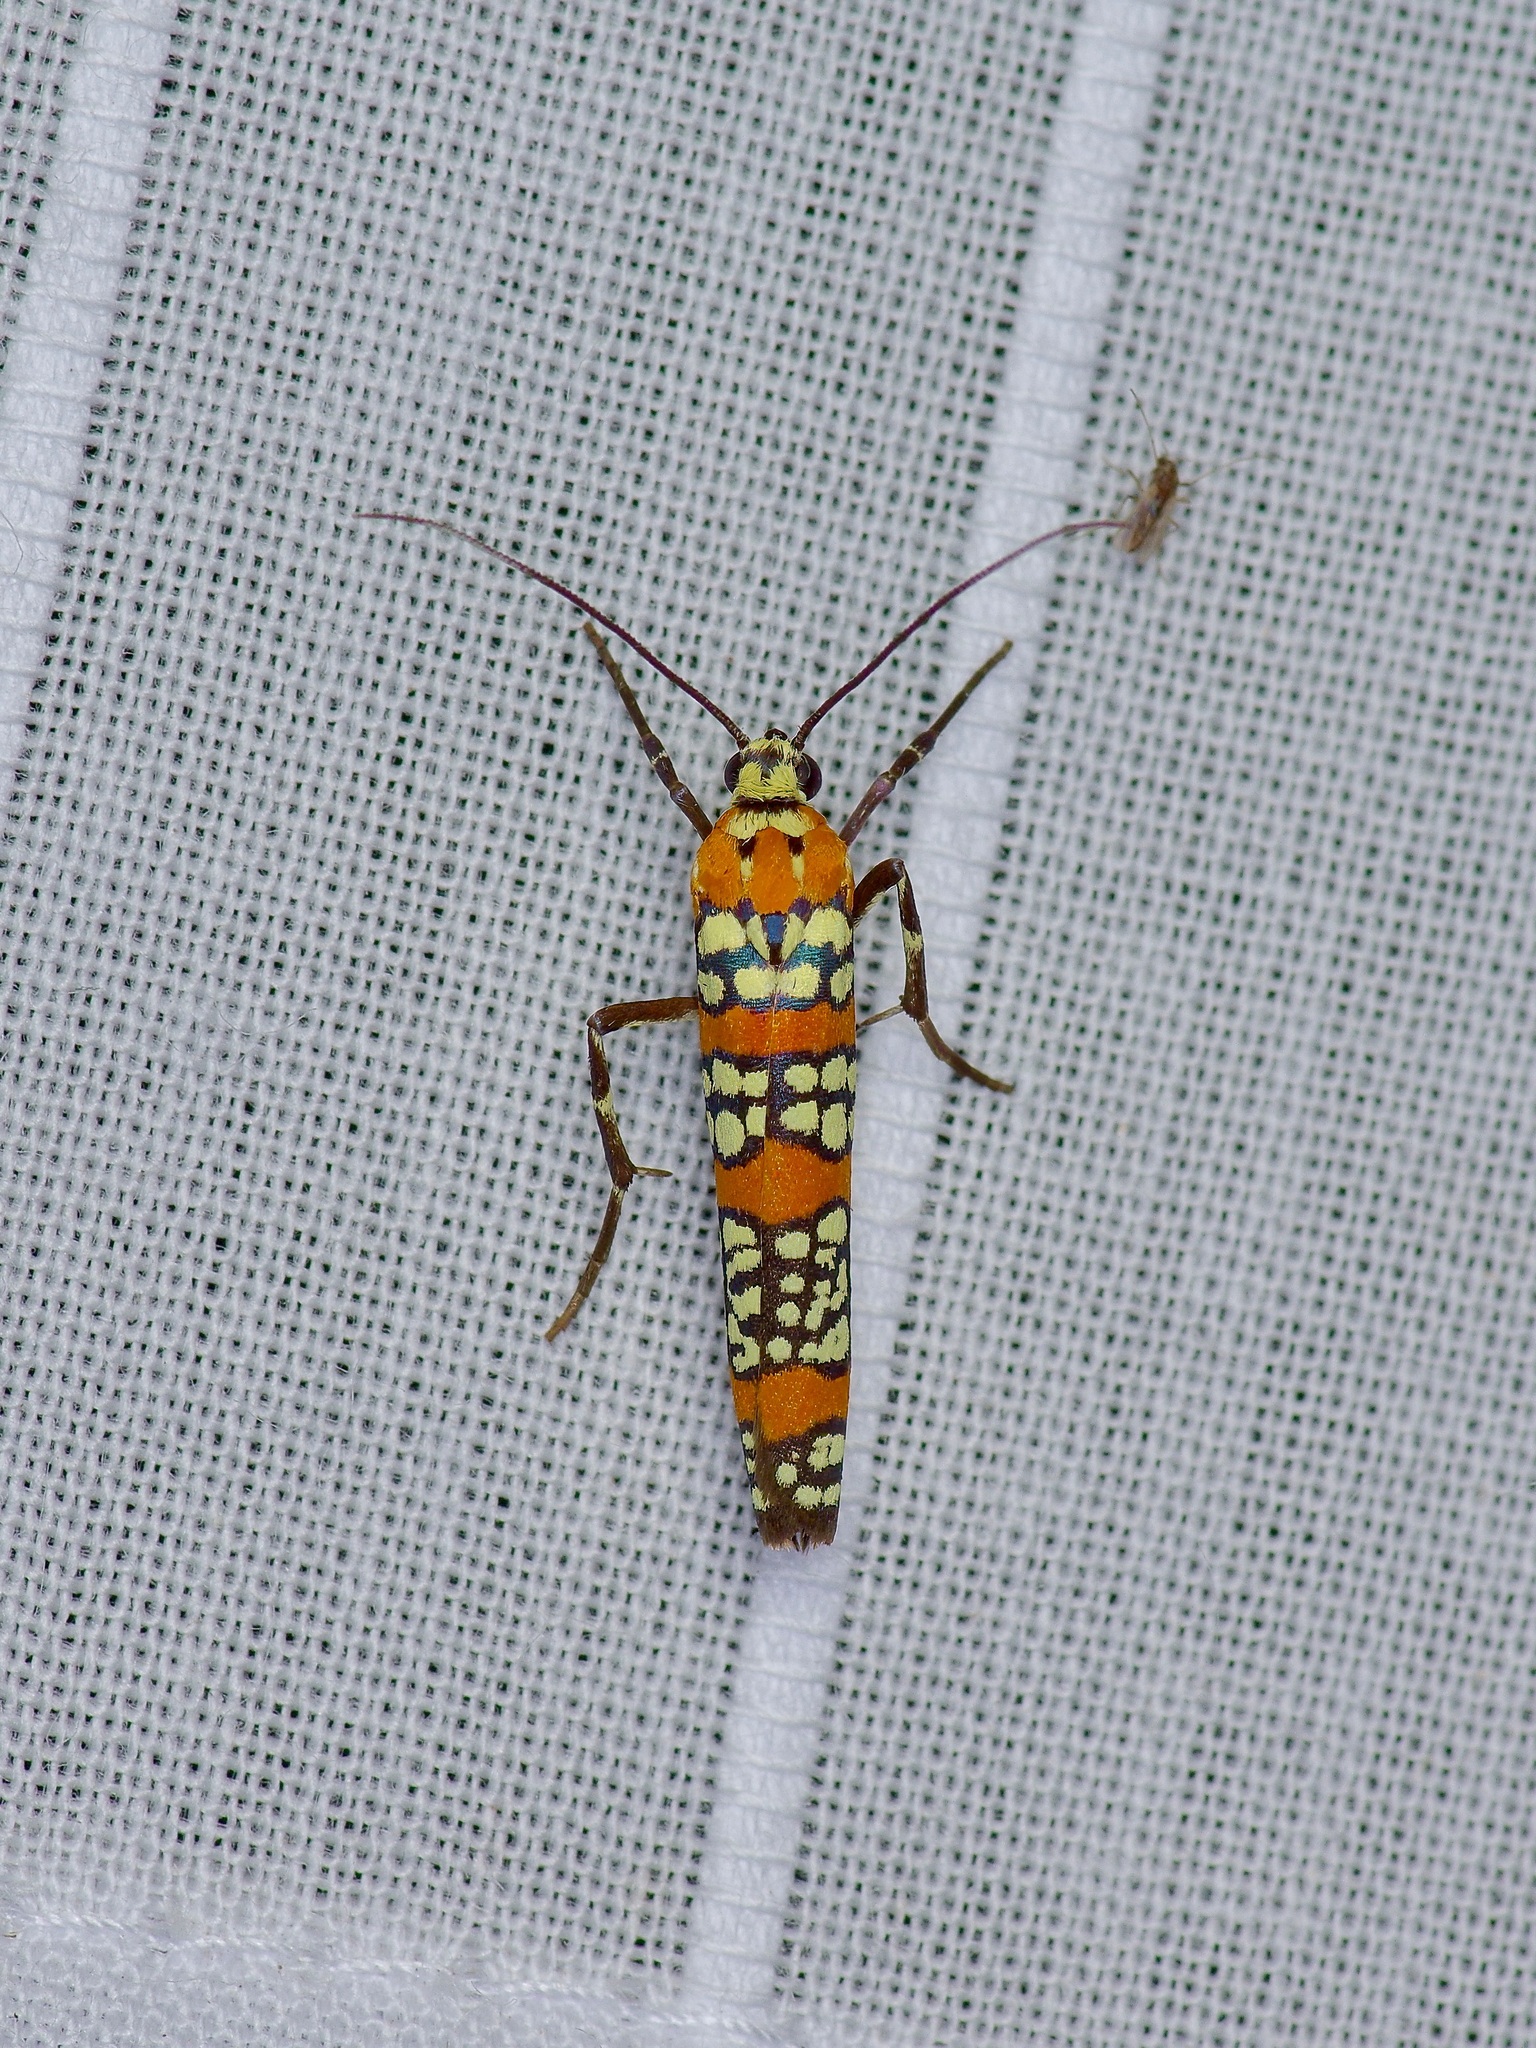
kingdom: Animalia
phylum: Arthropoda
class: Insecta
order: Lepidoptera
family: Attevidae
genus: Atteva
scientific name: Atteva punctella
